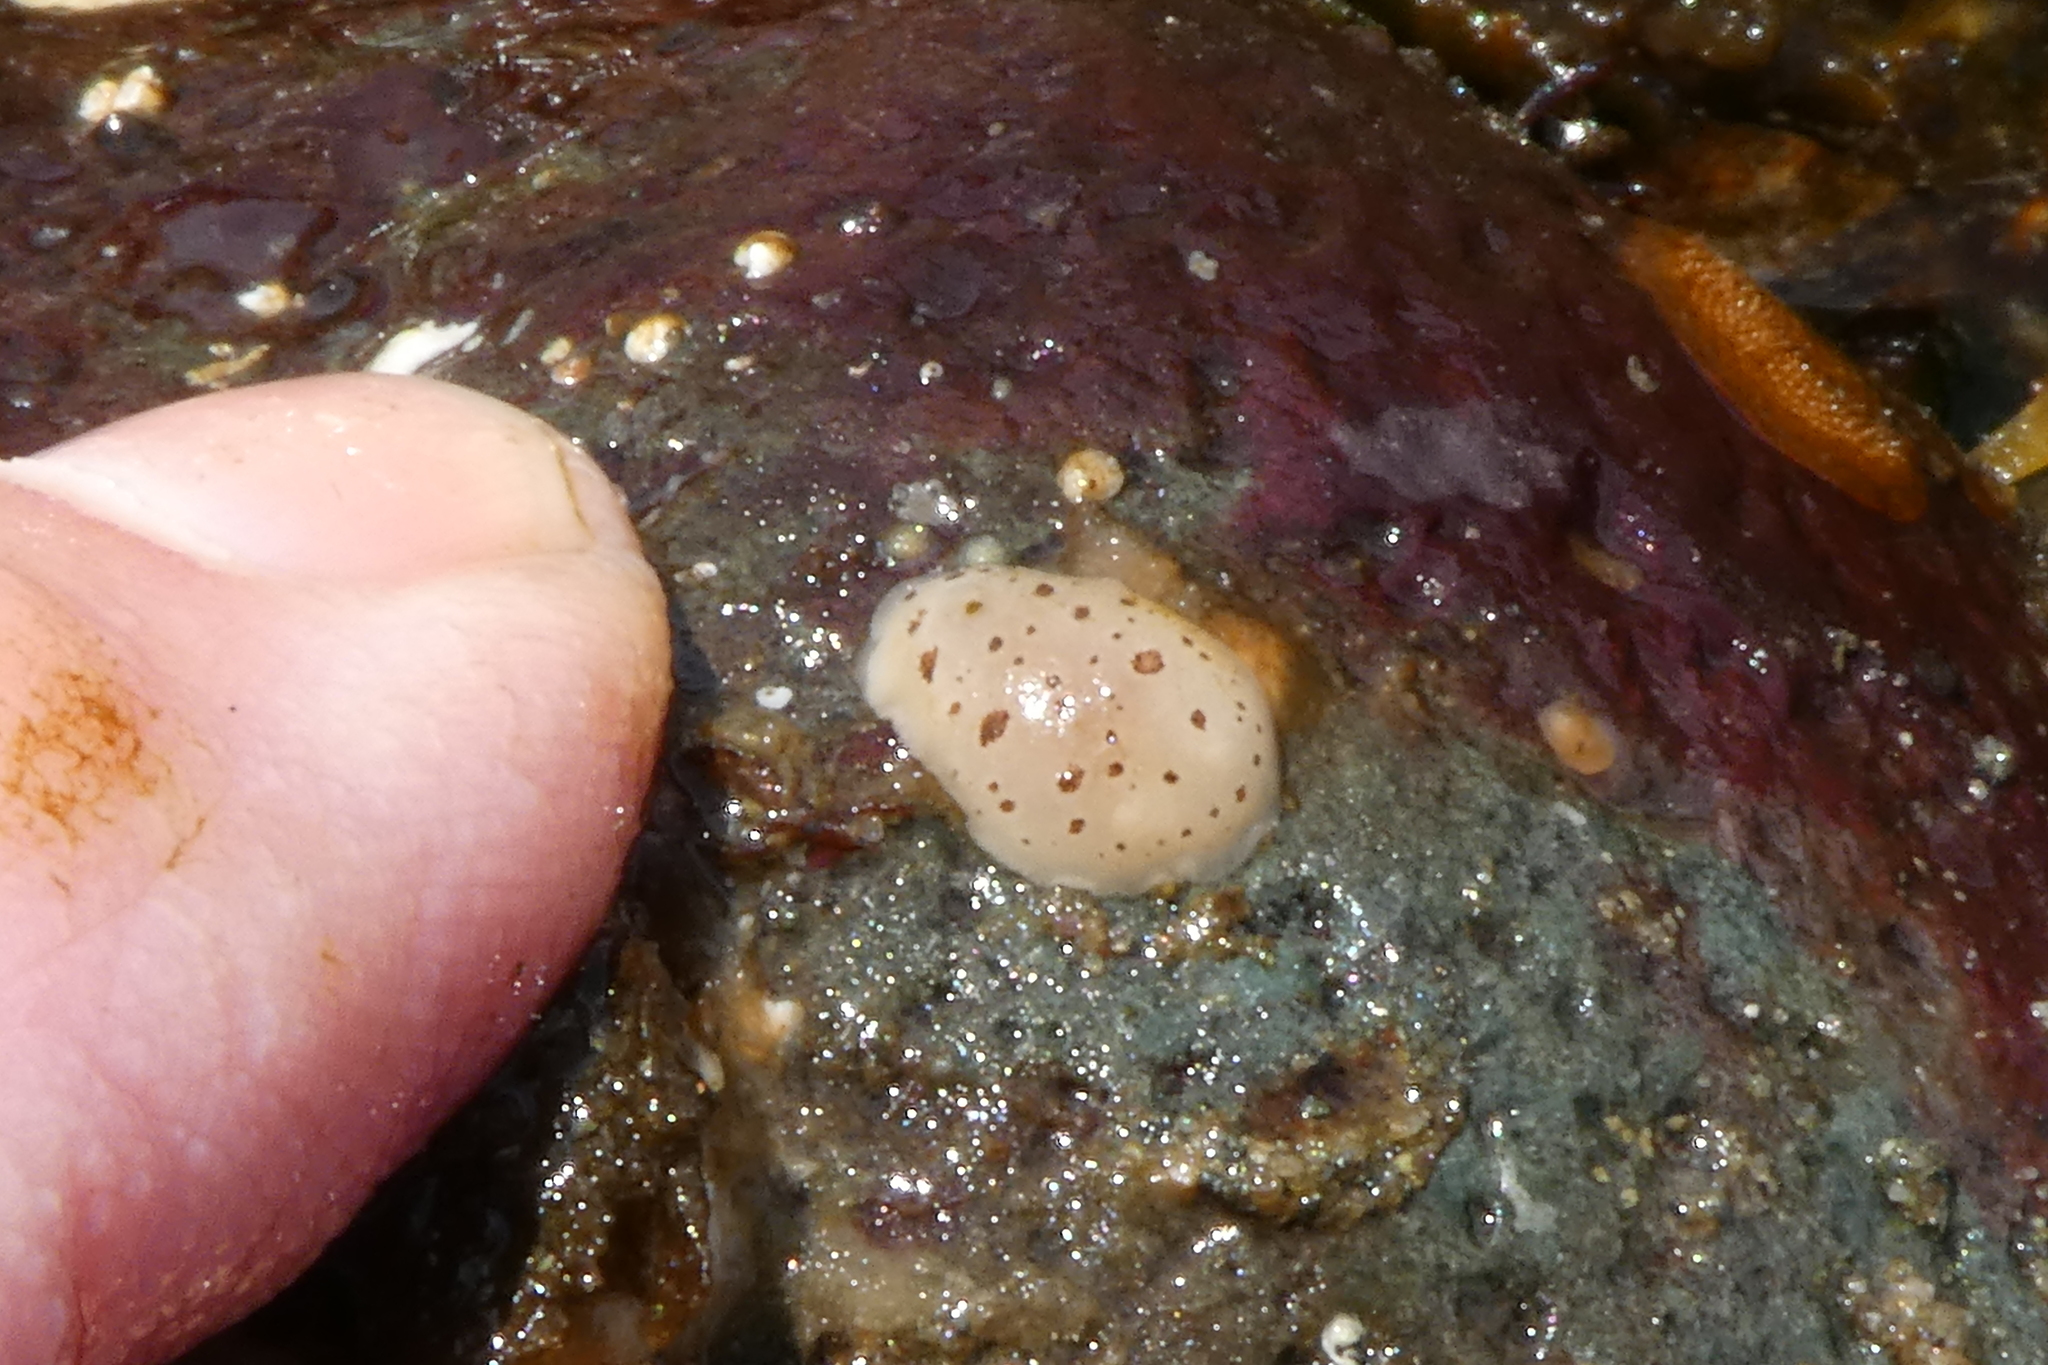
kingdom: Animalia
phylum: Mollusca
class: Gastropoda
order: Nudibranchia
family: Discodorididae
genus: Diaulula
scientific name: Diaulula odonoghuei
